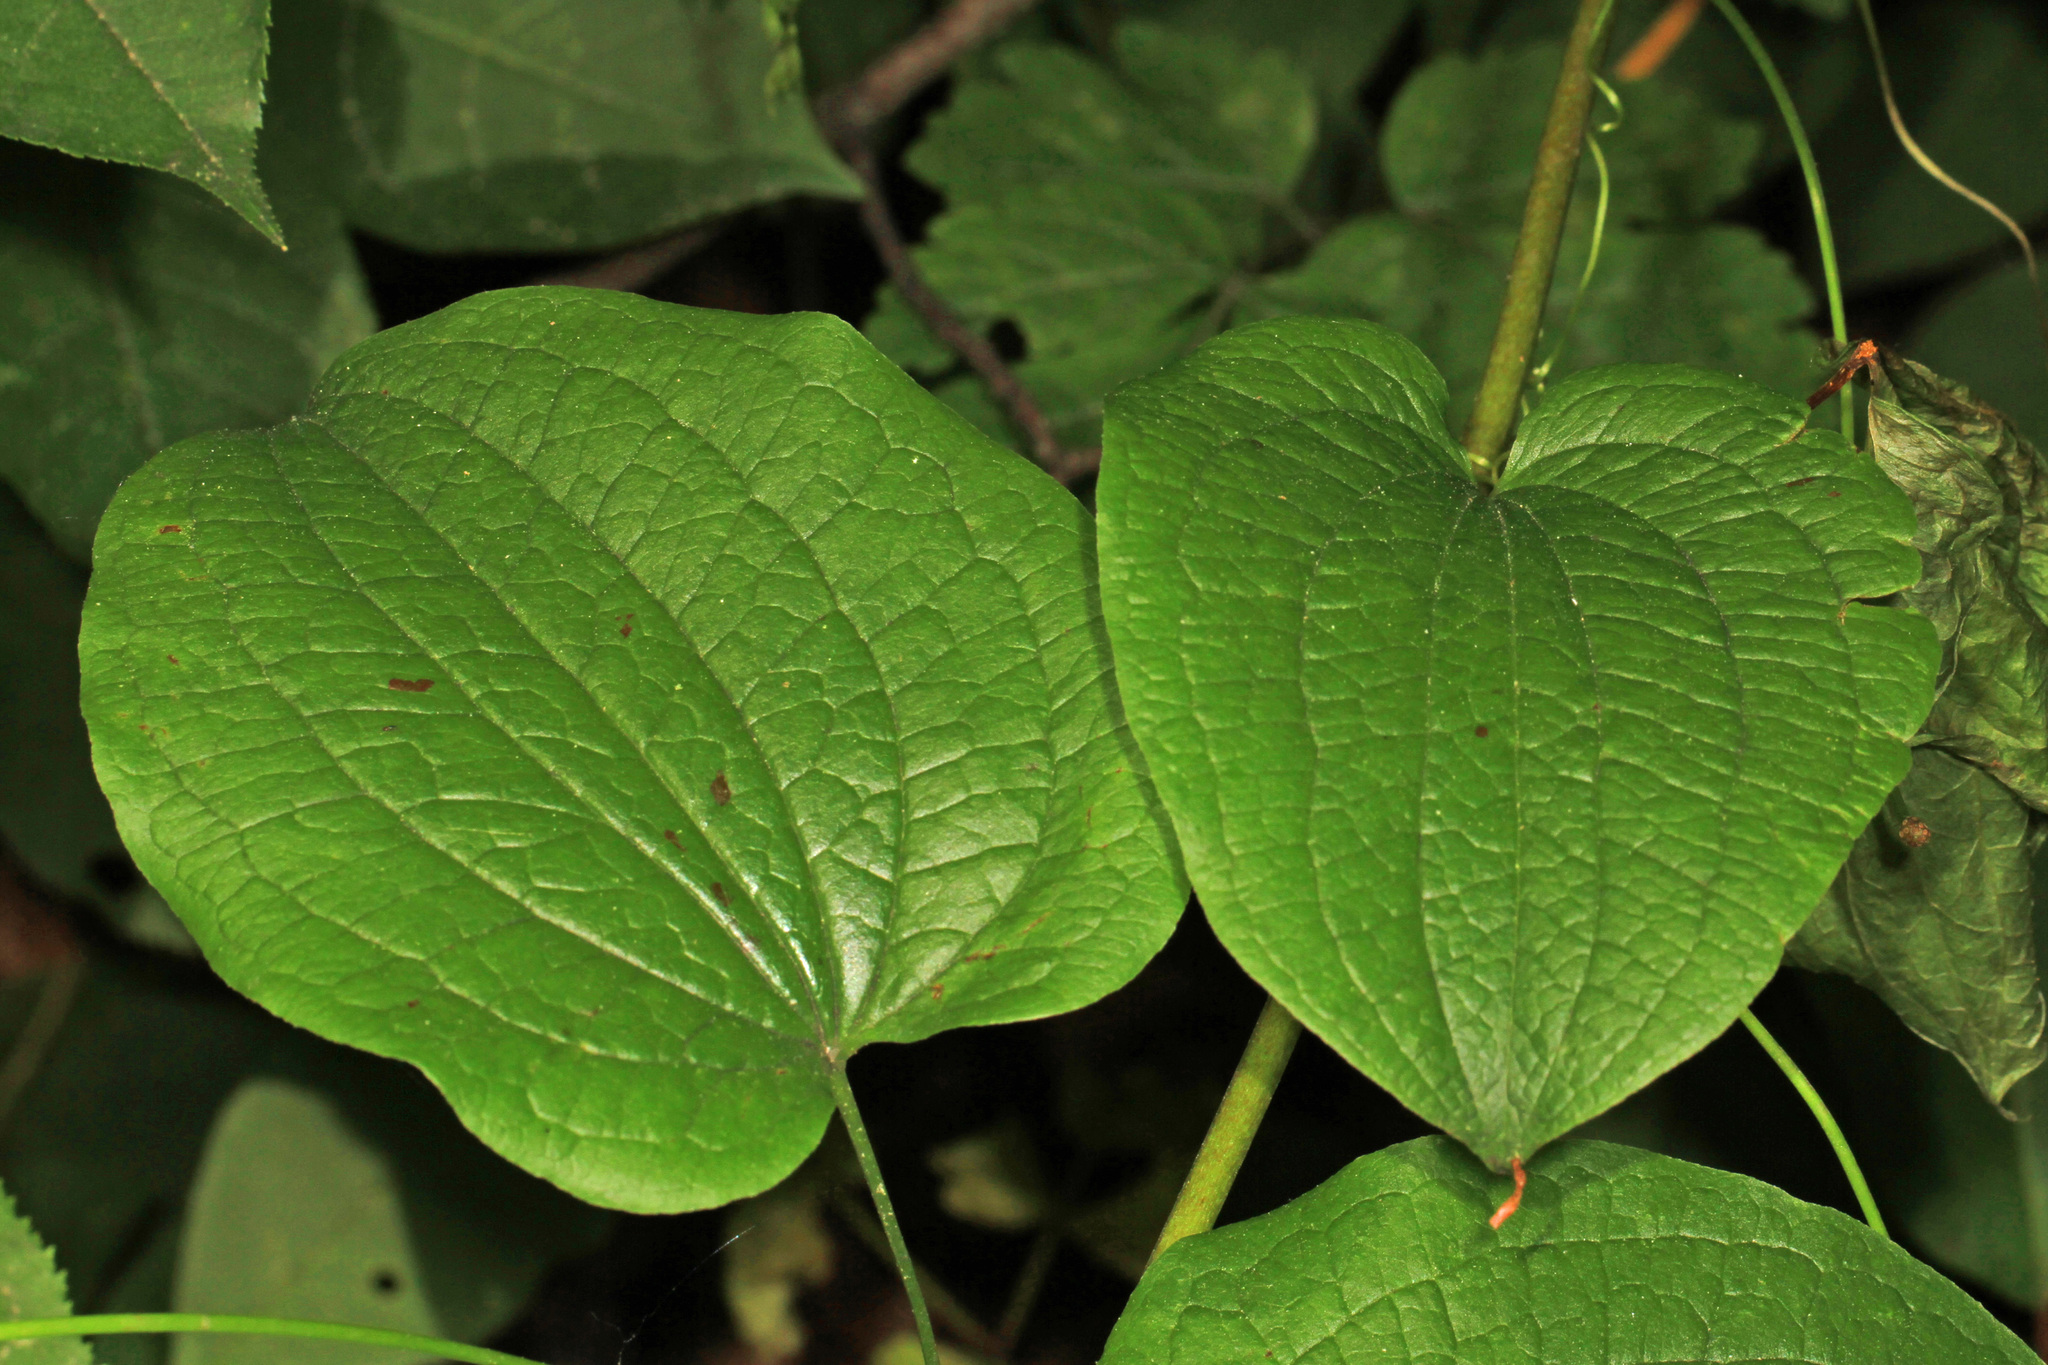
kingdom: Plantae
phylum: Tracheophyta
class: Liliopsida
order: Dioscoreales
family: Dioscoreaceae
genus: Dioscorea
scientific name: Dioscorea villosa
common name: Wild yam
